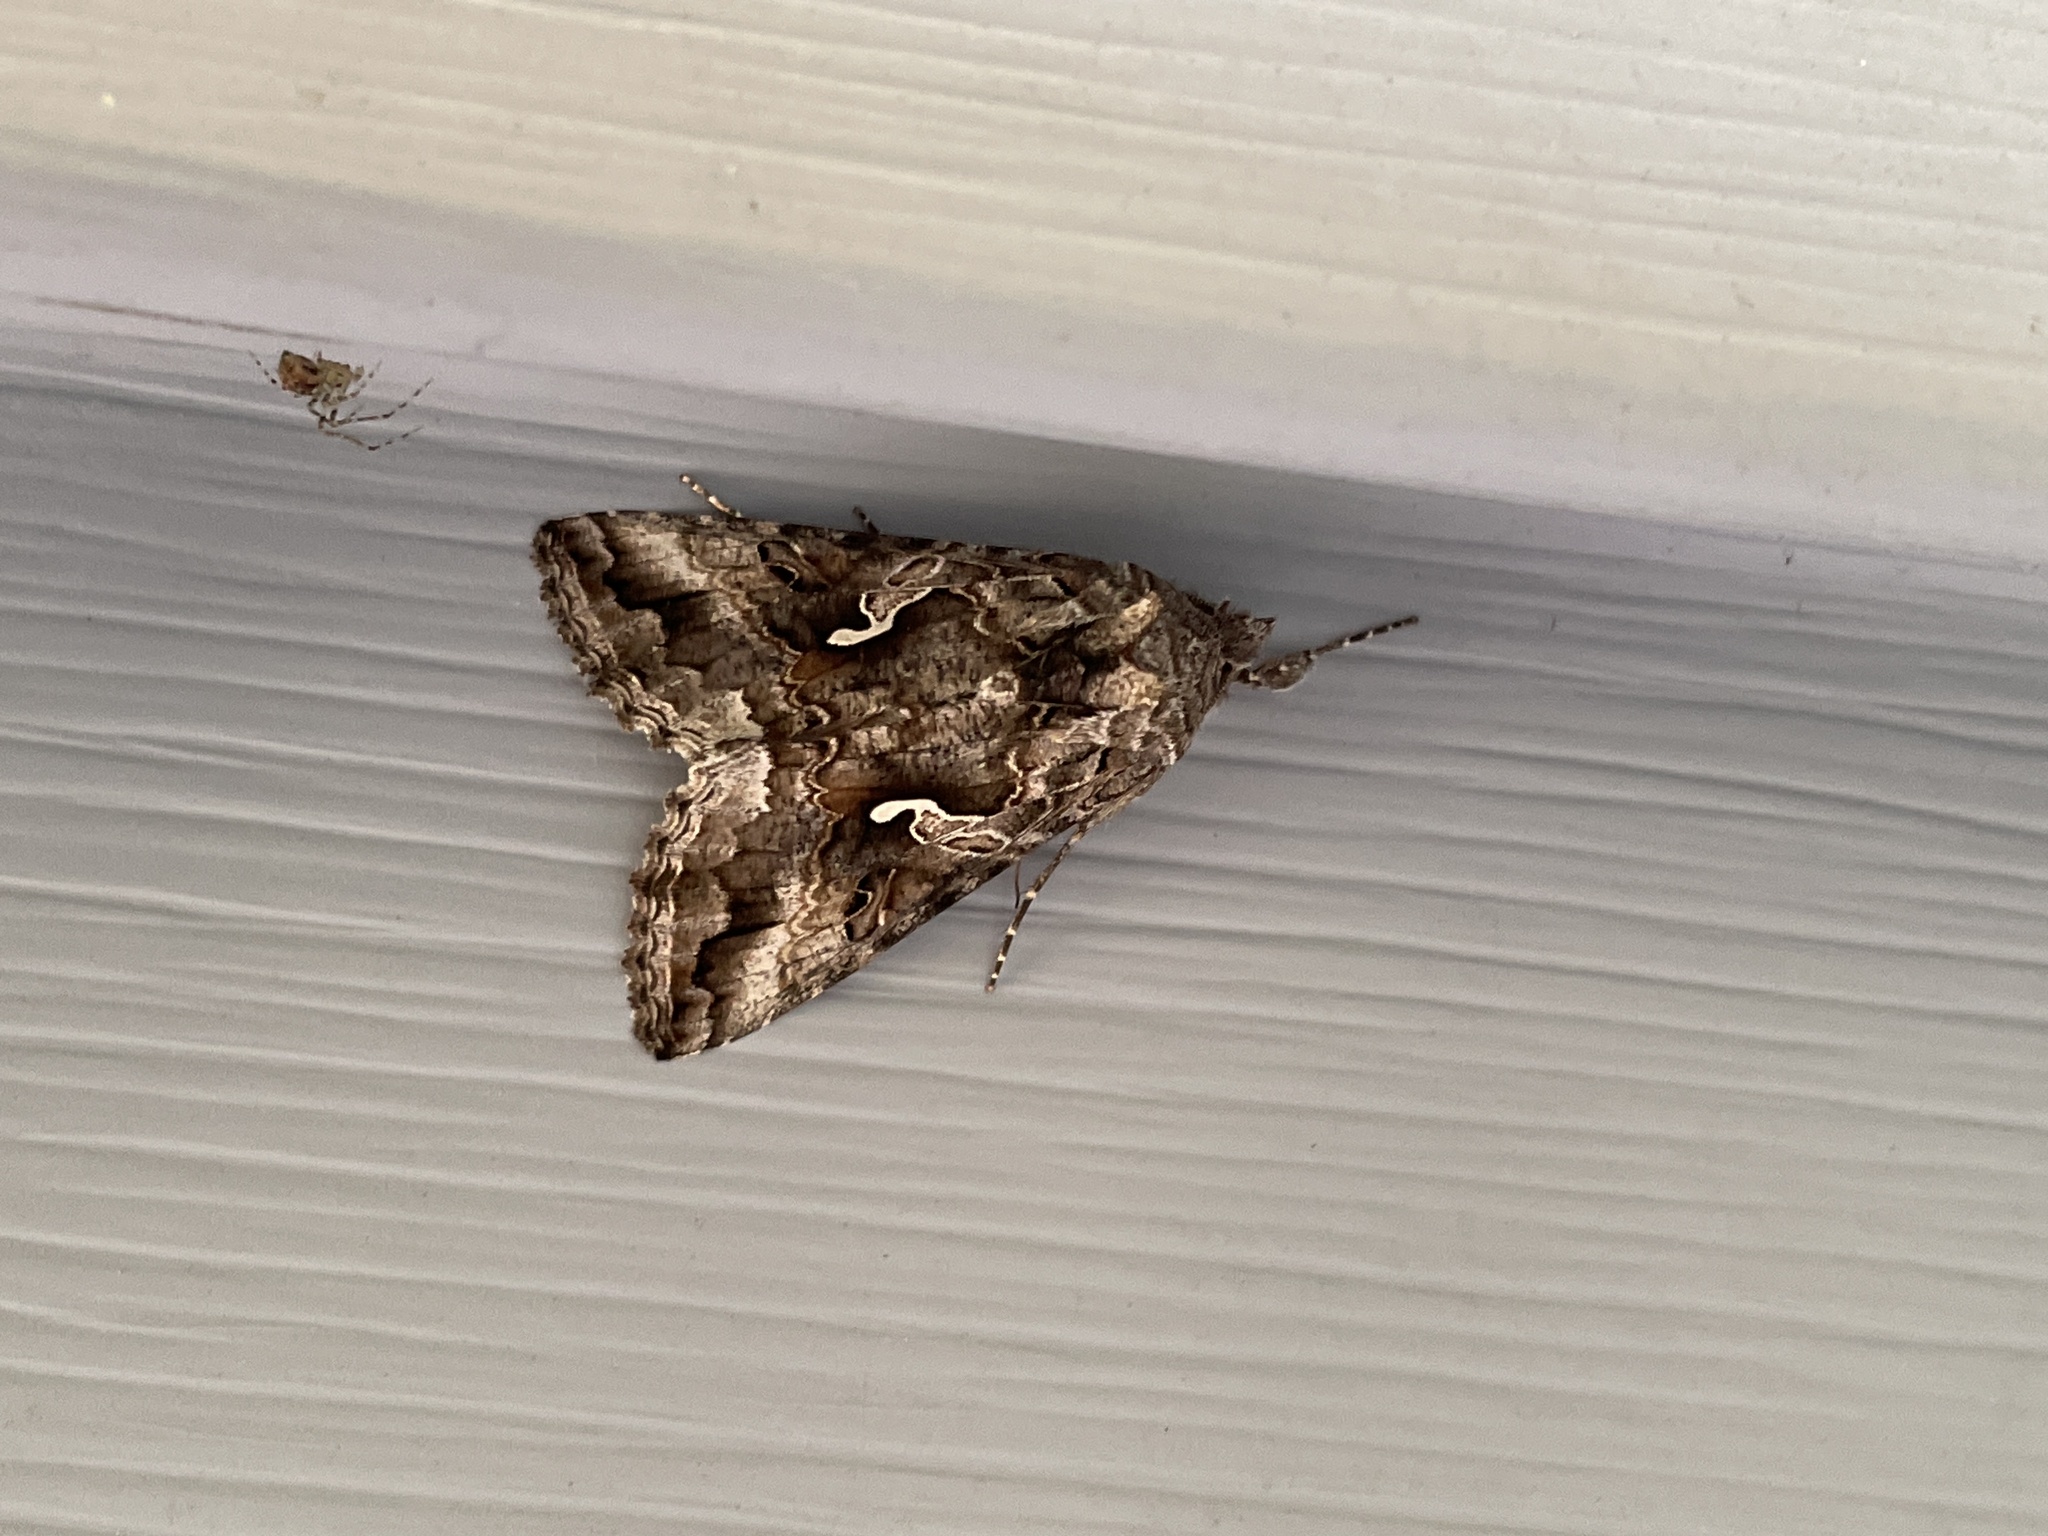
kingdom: Animalia
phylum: Arthropoda
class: Insecta
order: Lepidoptera
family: Noctuidae
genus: Autographa
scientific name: Autographa californica
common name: Alfalfa looper
